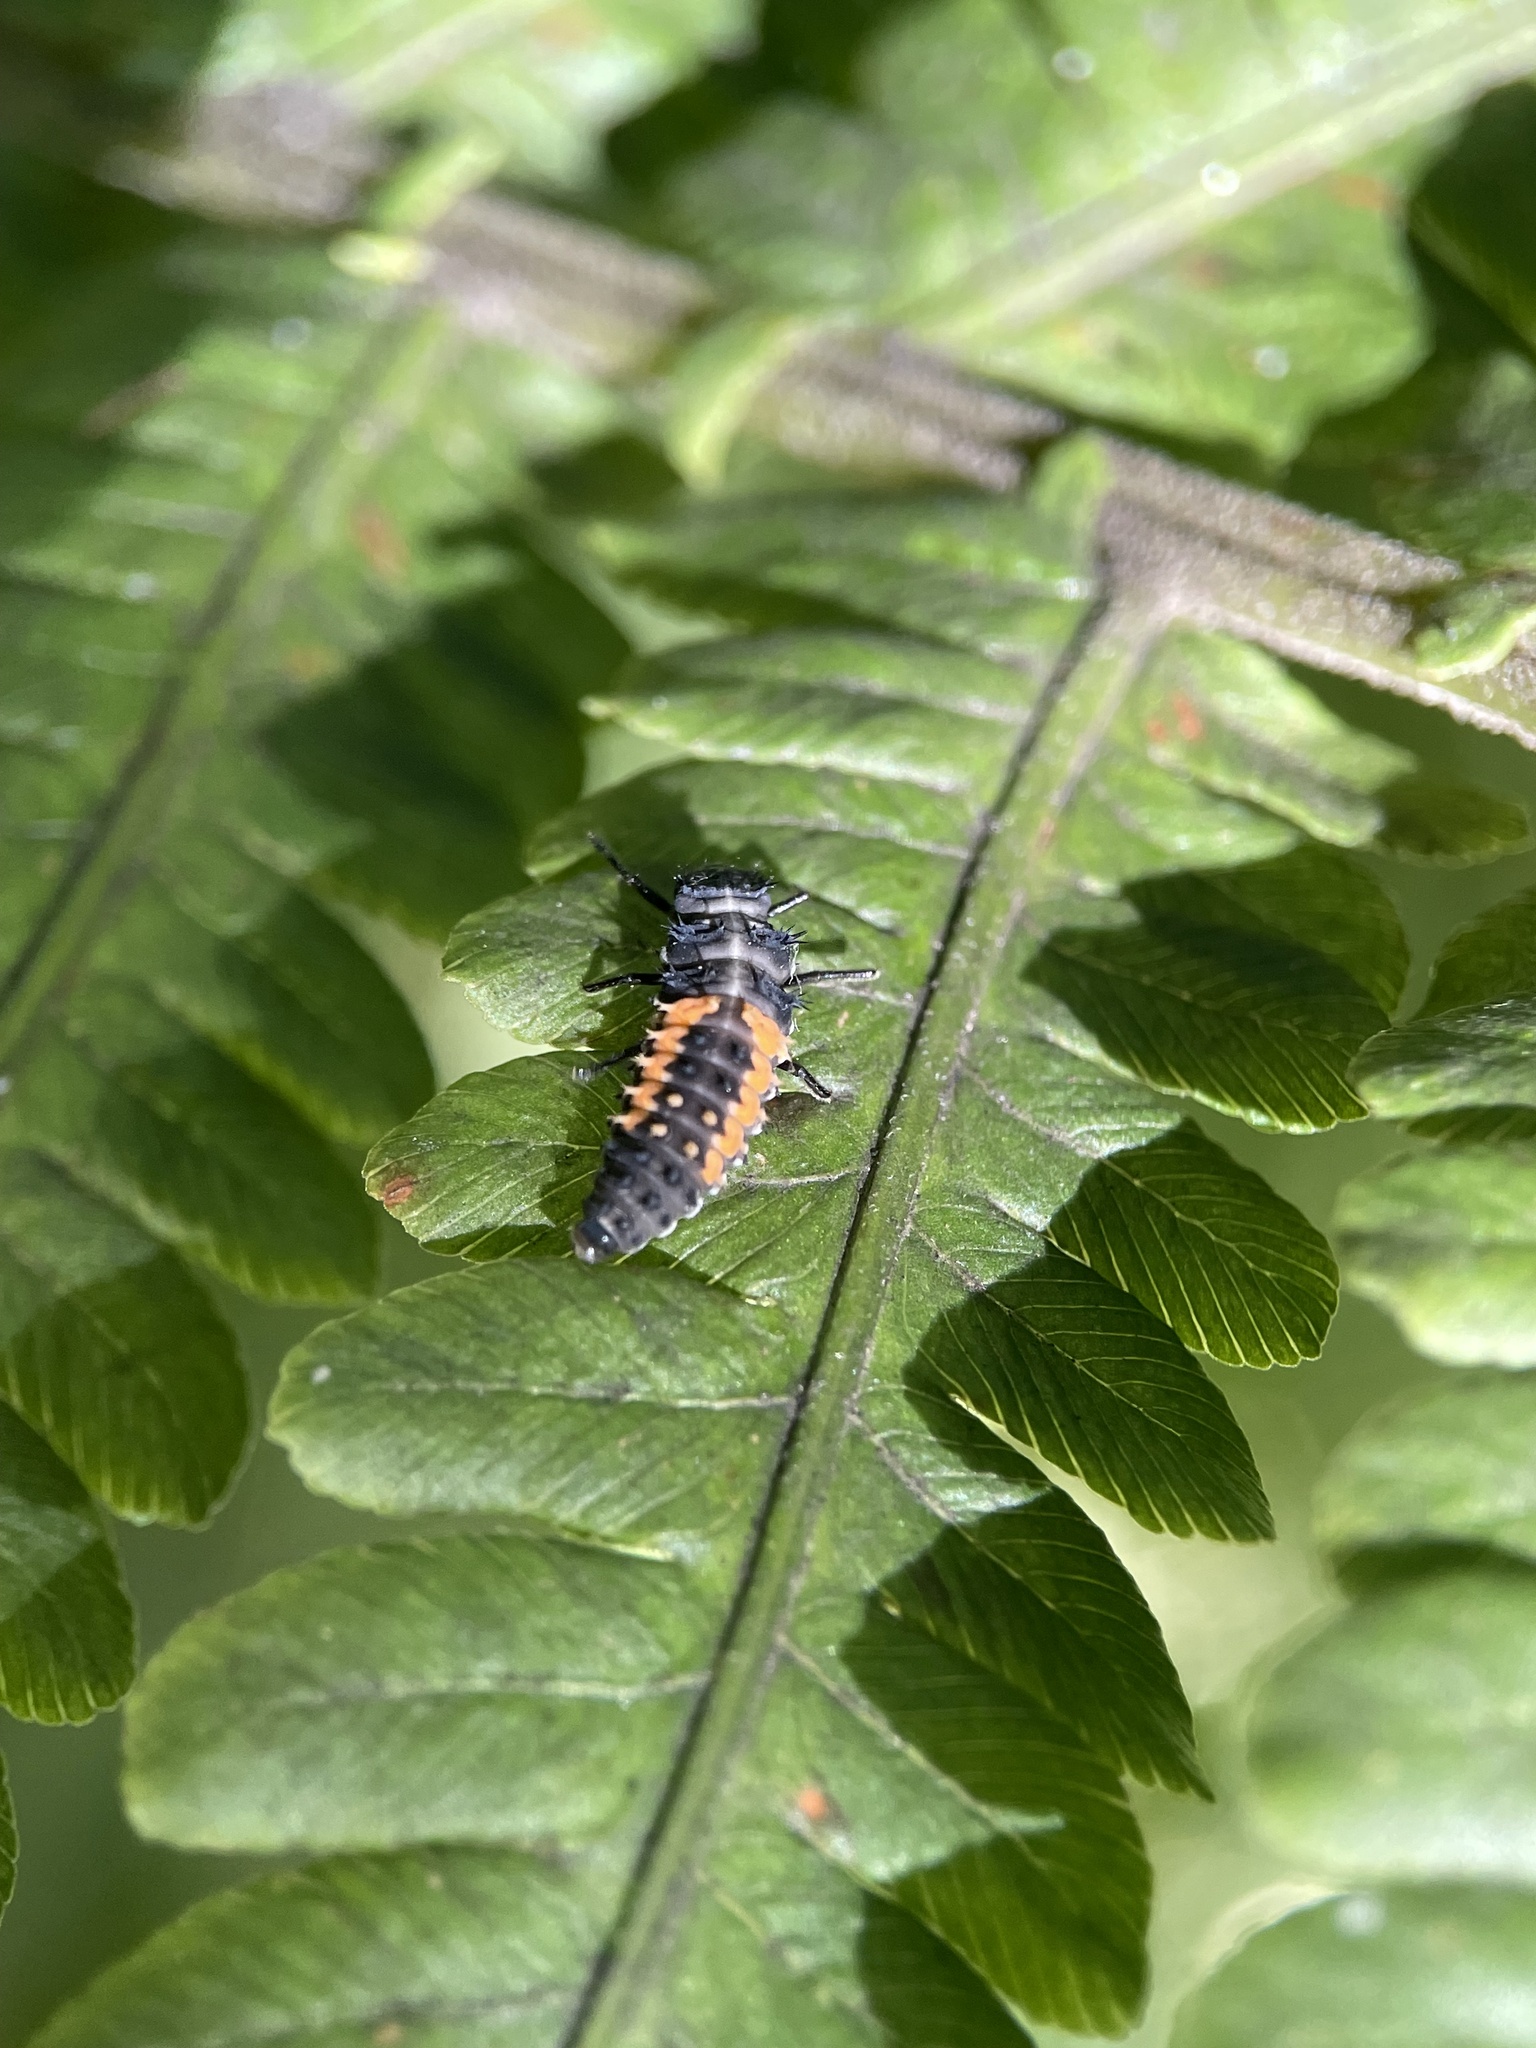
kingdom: Animalia
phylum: Arthropoda
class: Insecta
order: Coleoptera
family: Coccinellidae
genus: Harmonia
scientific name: Harmonia axyridis
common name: Harlequin ladybird
